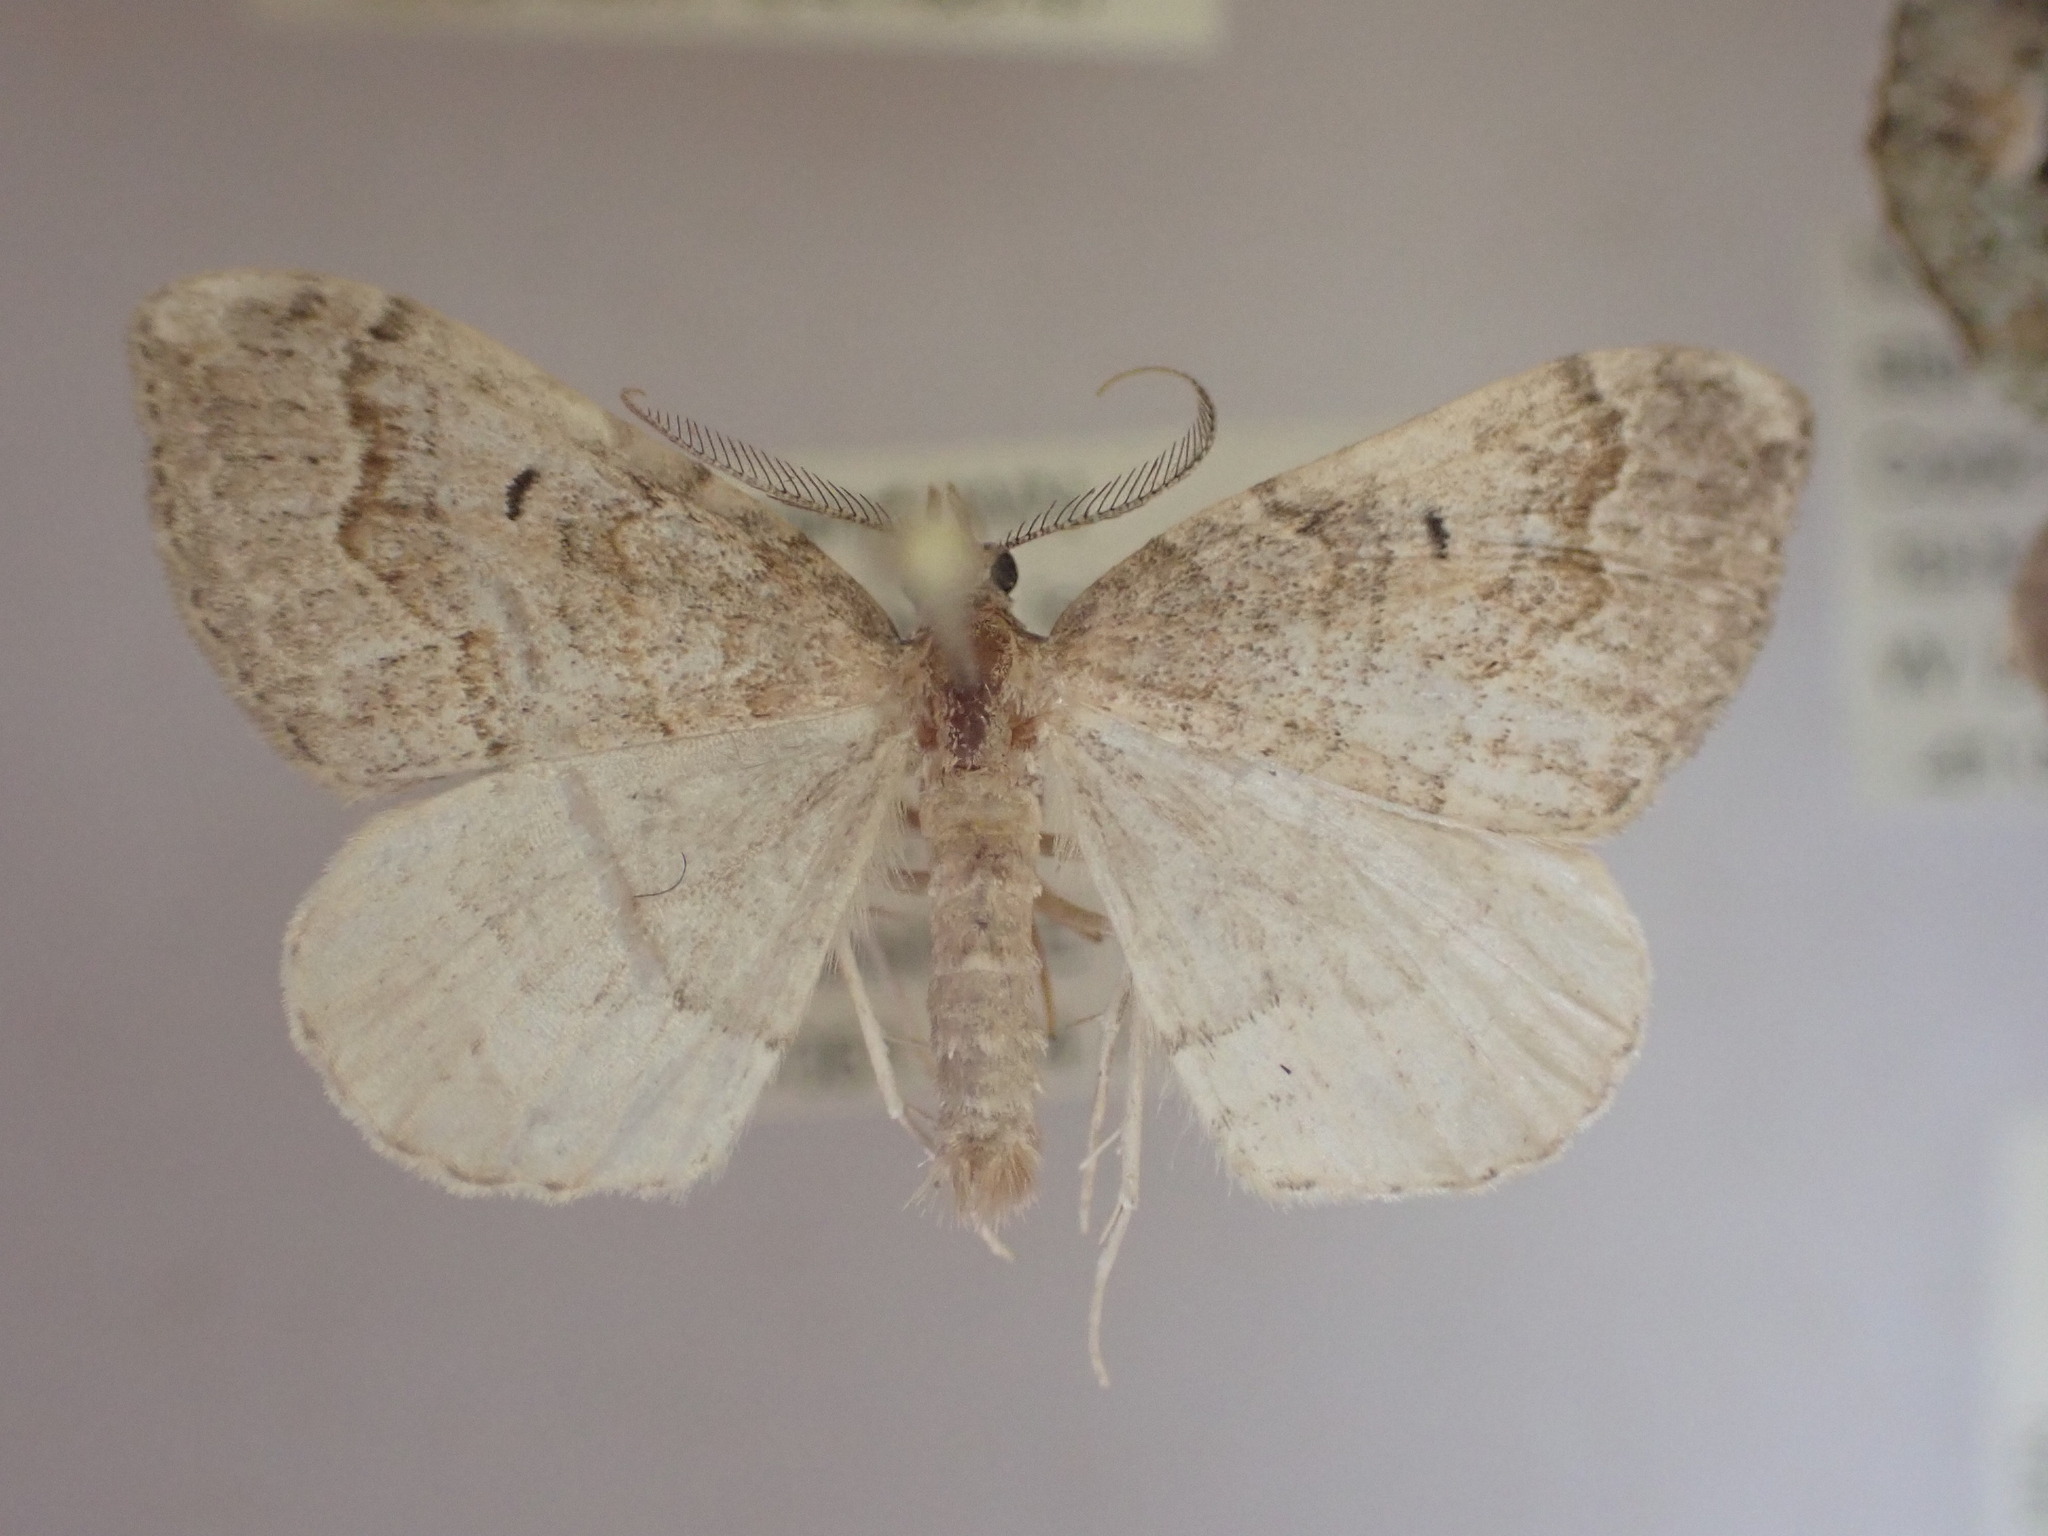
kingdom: Animalia
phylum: Arthropoda
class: Insecta
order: Lepidoptera
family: Geometridae
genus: Epyaxa
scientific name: Epyaxa rosearia
